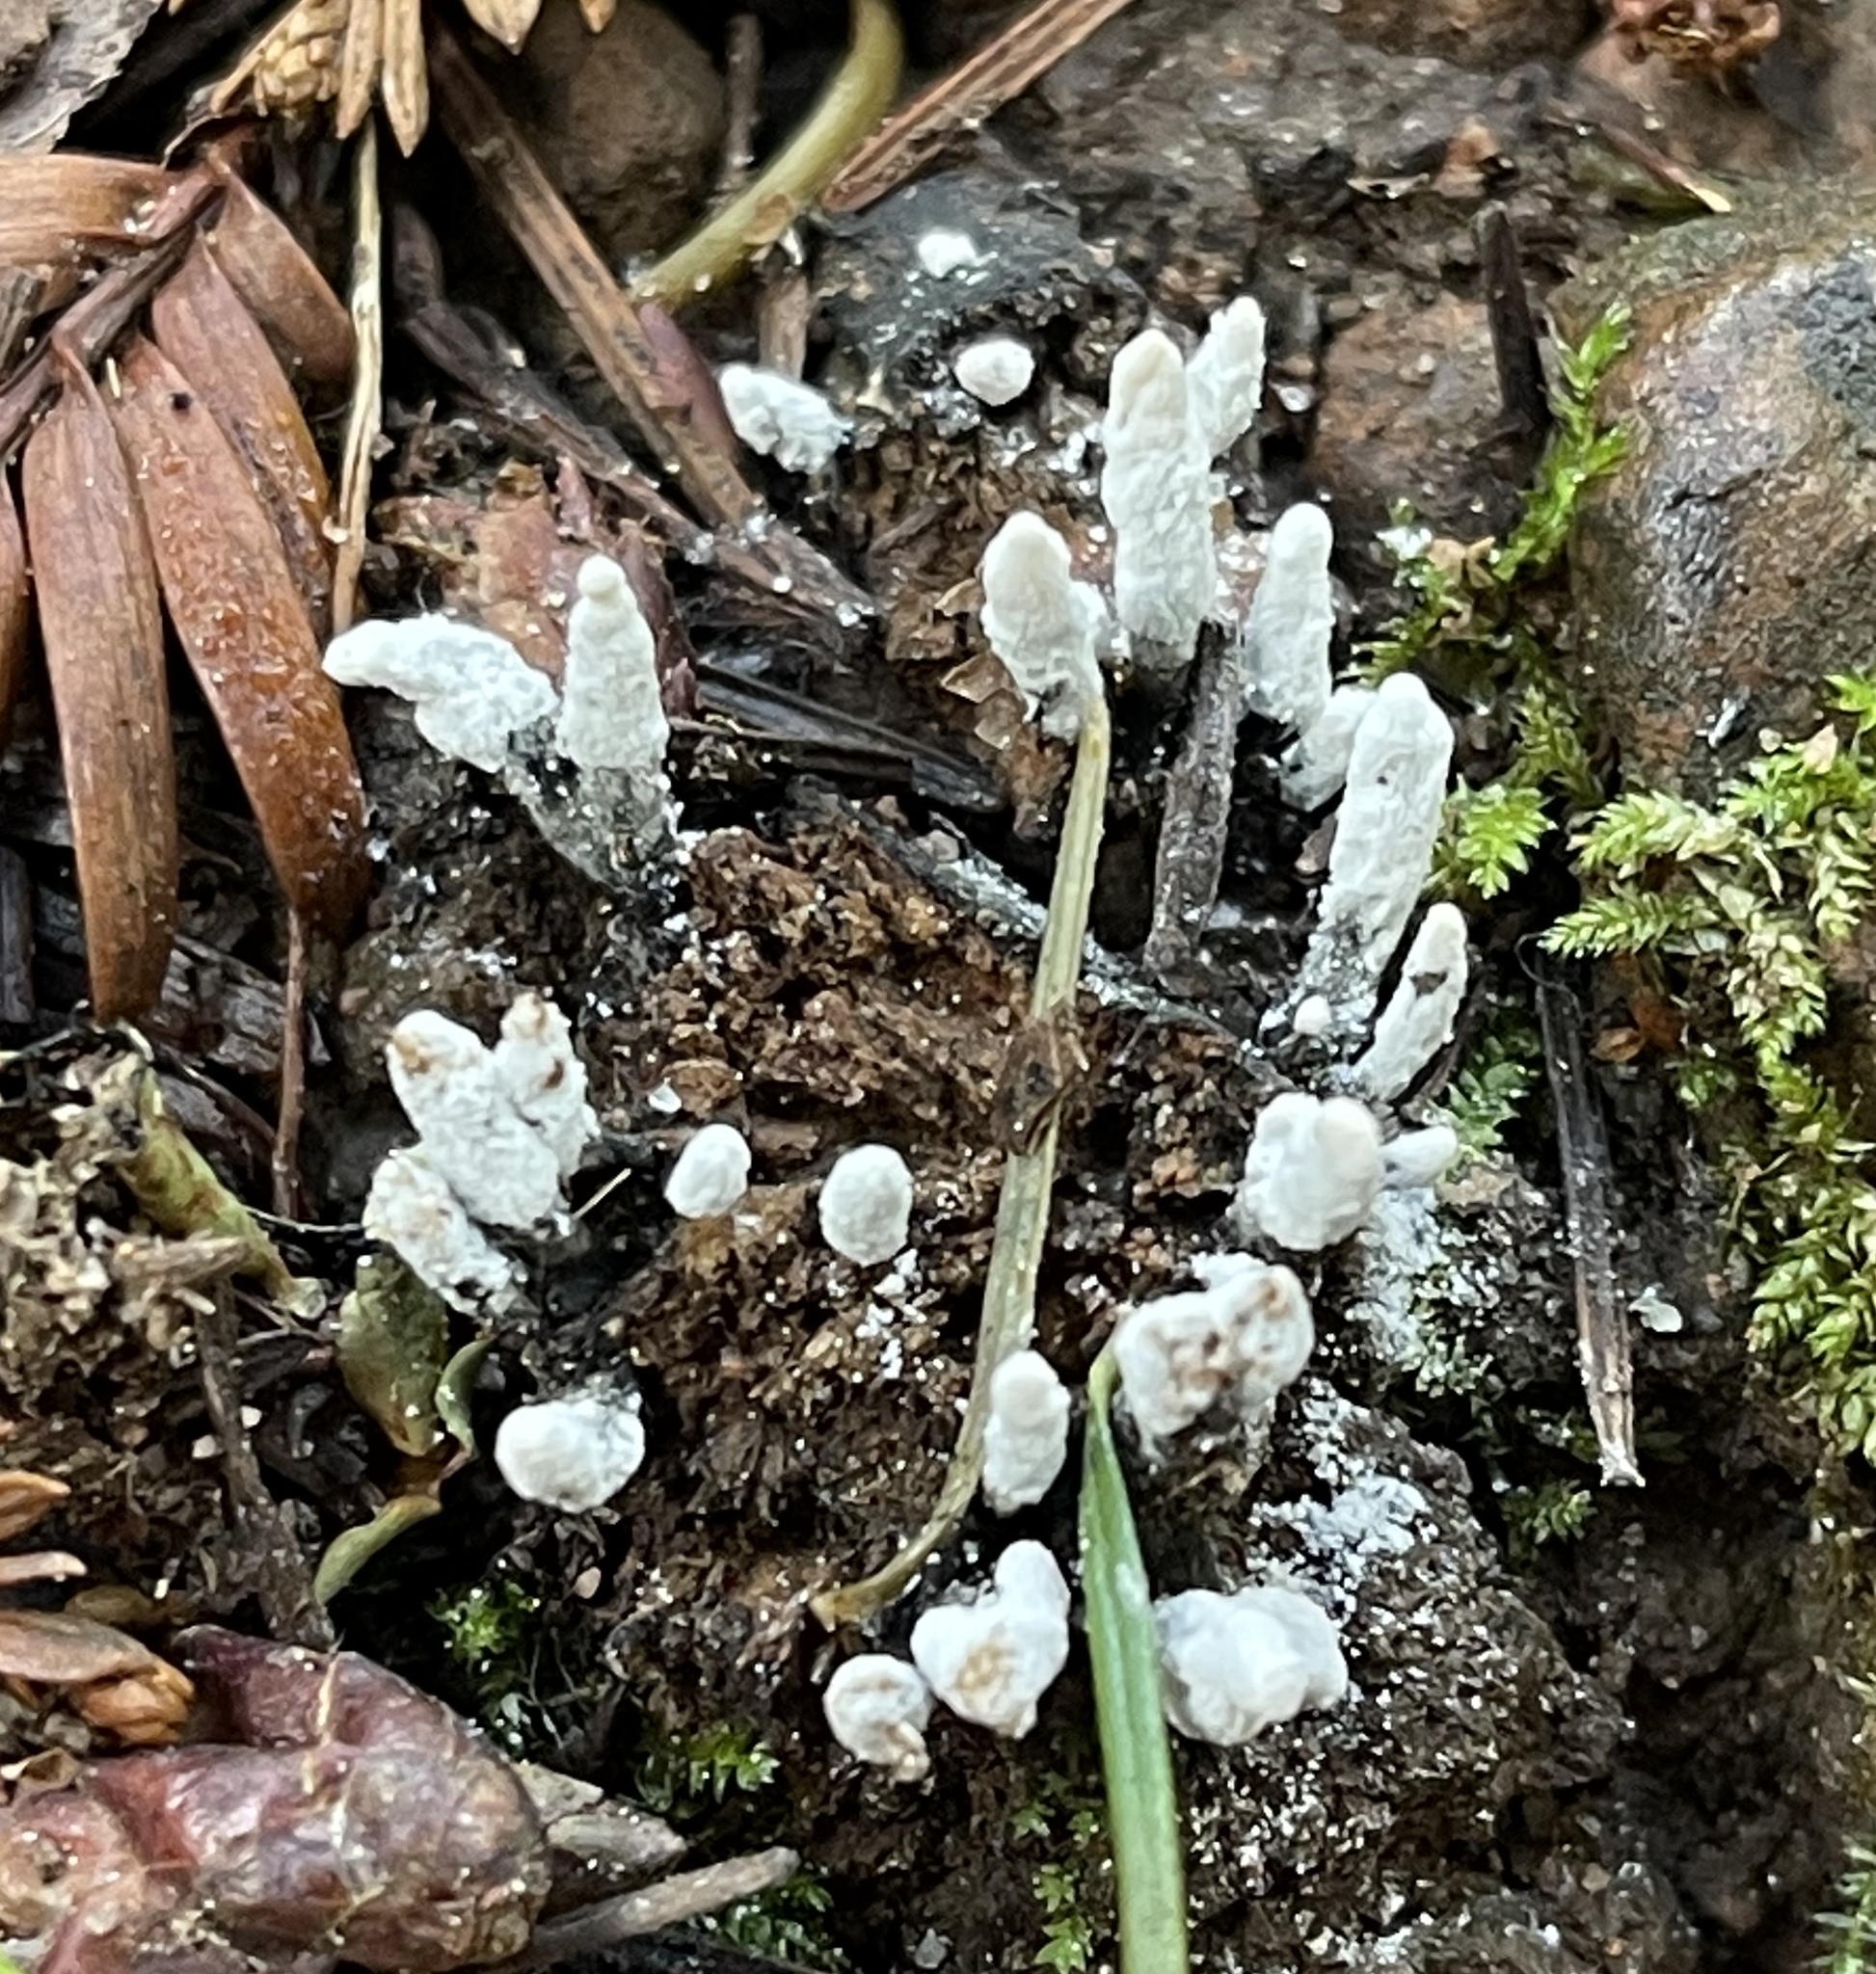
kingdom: Fungi
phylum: Ascomycota
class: Sordariomycetes
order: Xylariales
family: Xylariaceae
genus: Xylaria
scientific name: Xylaria hypoxylon
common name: Candle-snuff fungus
